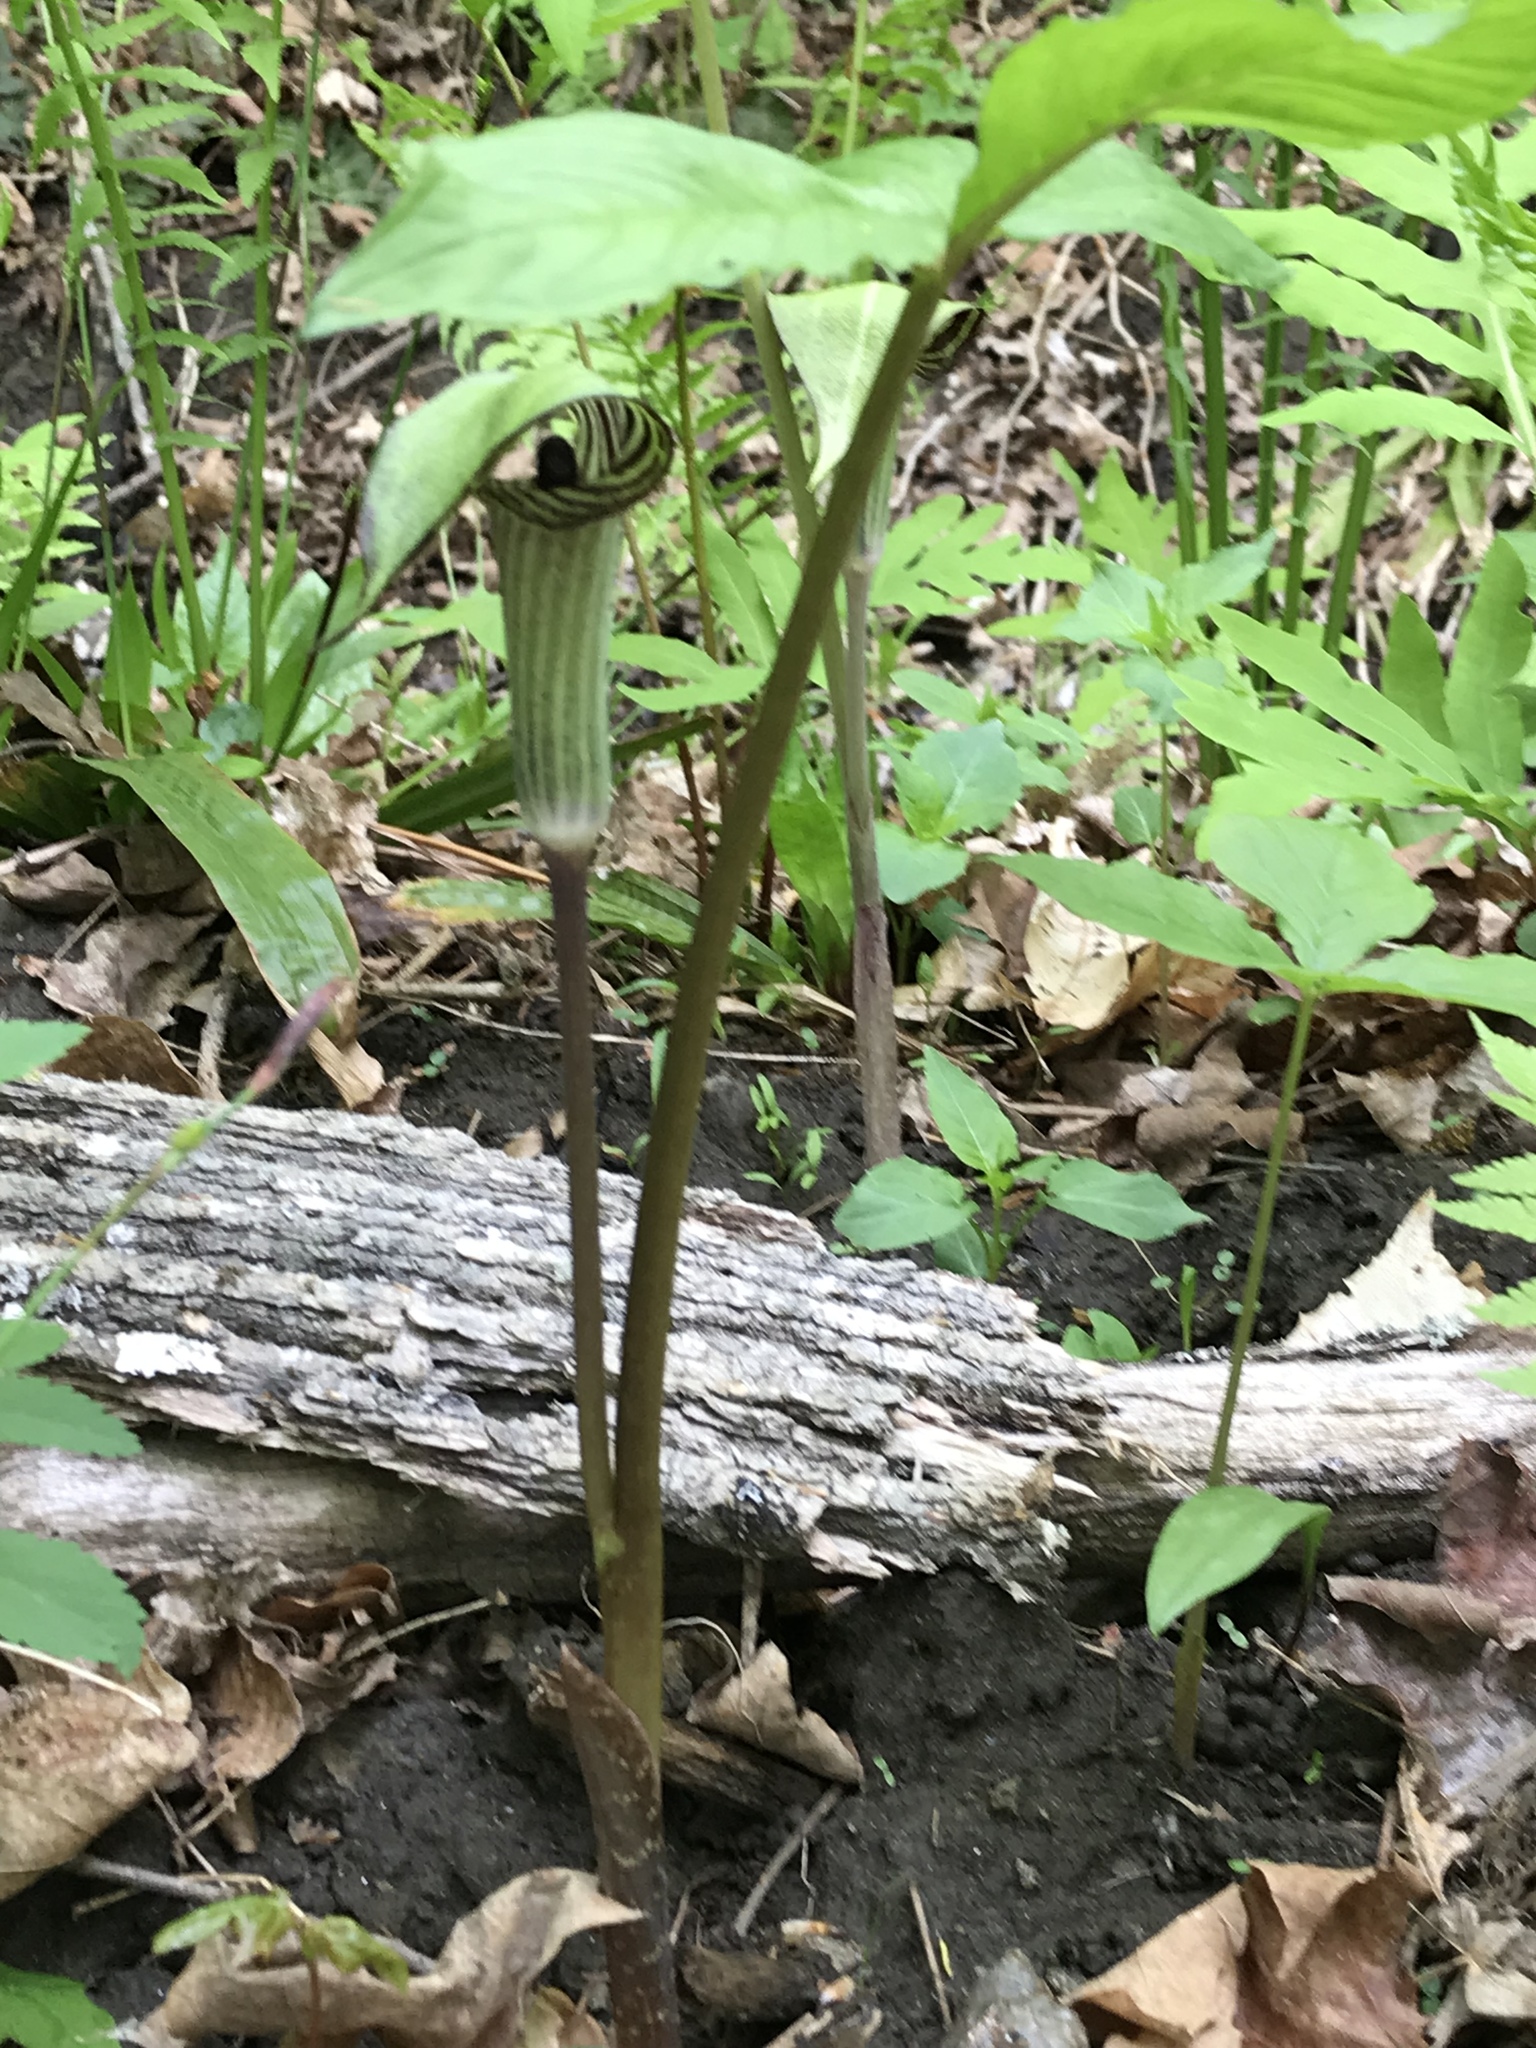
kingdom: Plantae
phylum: Tracheophyta
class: Liliopsida
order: Alismatales
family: Araceae
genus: Arisaema
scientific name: Arisaema triphyllum
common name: Jack-in-the-pulpit
